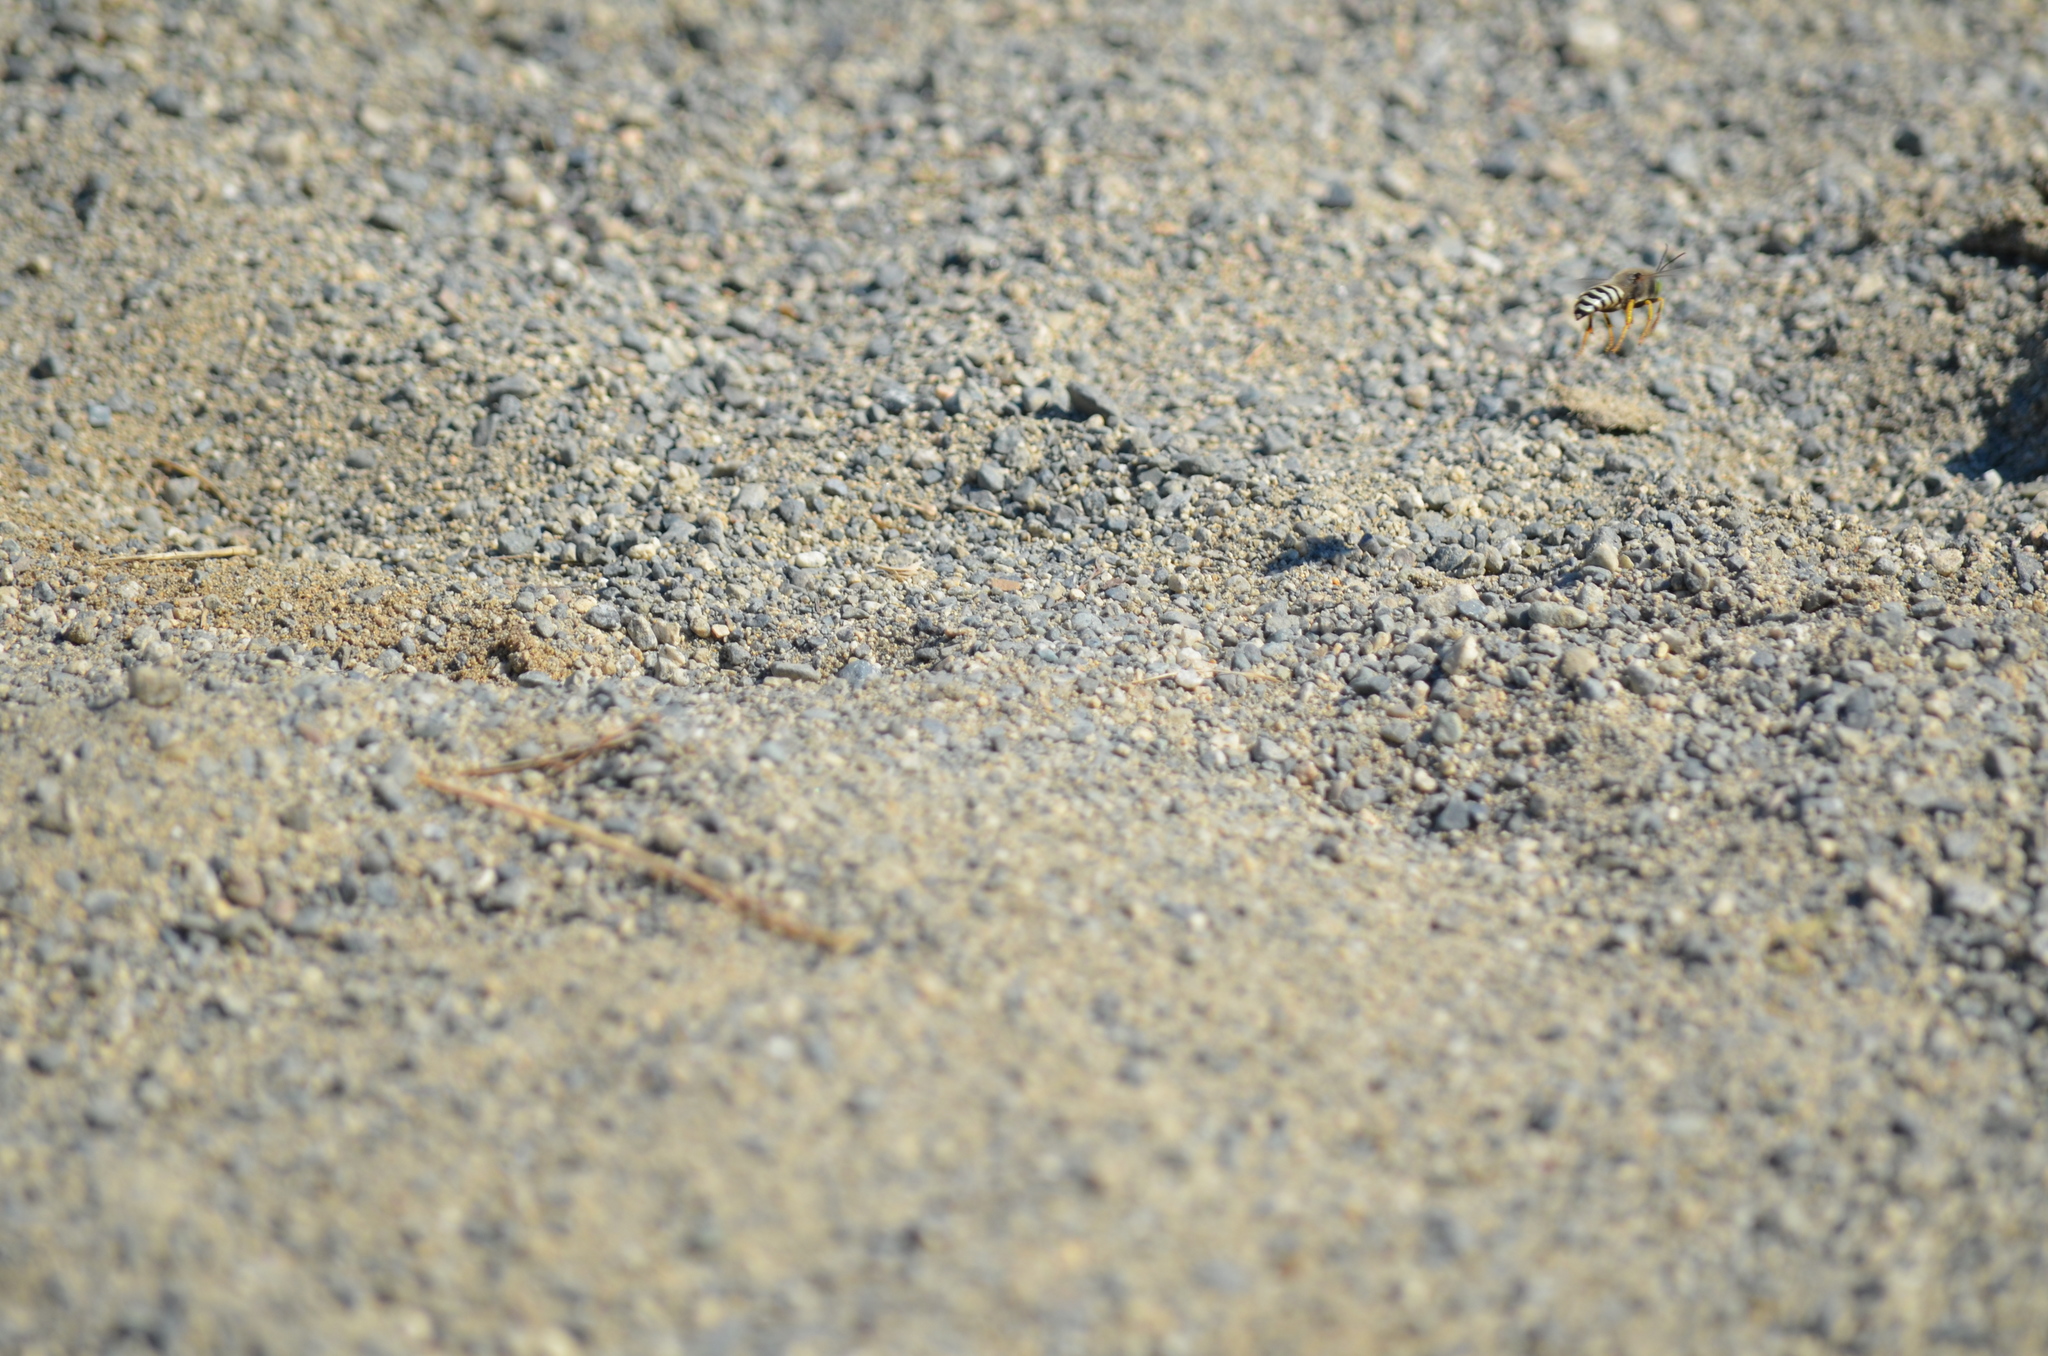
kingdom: Animalia
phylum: Arthropoda
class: Insecta
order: Hymenoptera
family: Crabronidae
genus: Bembix
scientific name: Bembix americana
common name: American sand wasp
